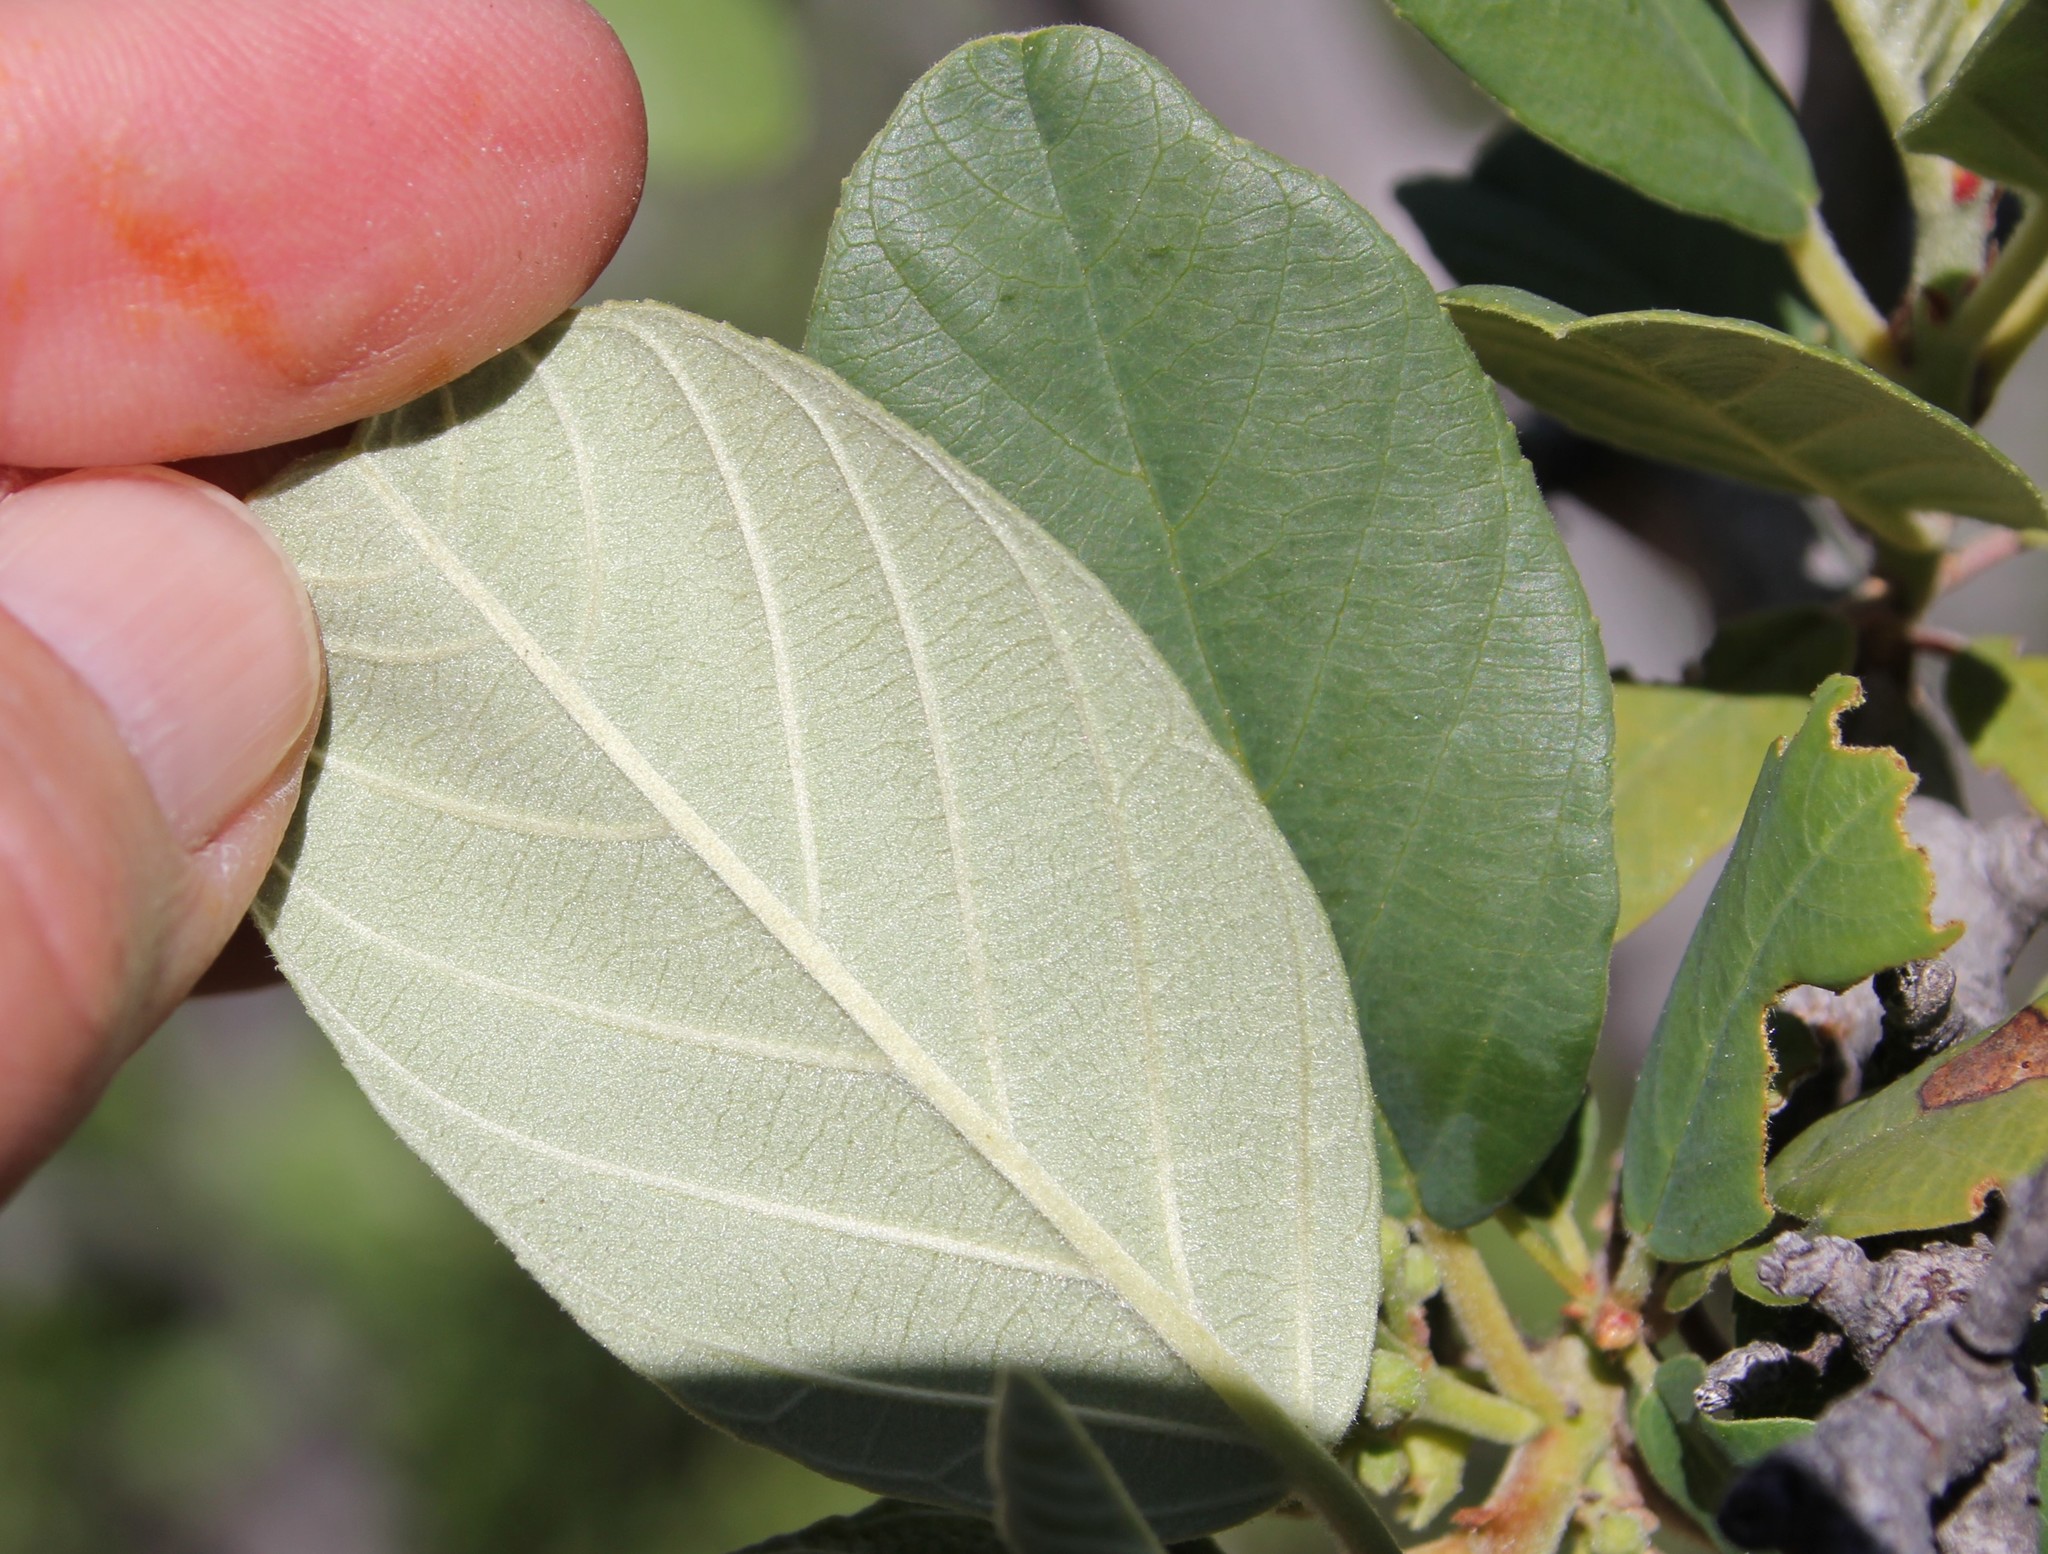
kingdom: Plantae
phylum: Tracheophyta
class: Magnoliopsida
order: Rosales
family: Rhamnaceae
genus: Frangula
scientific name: Frangula californica
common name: California buckthorn
